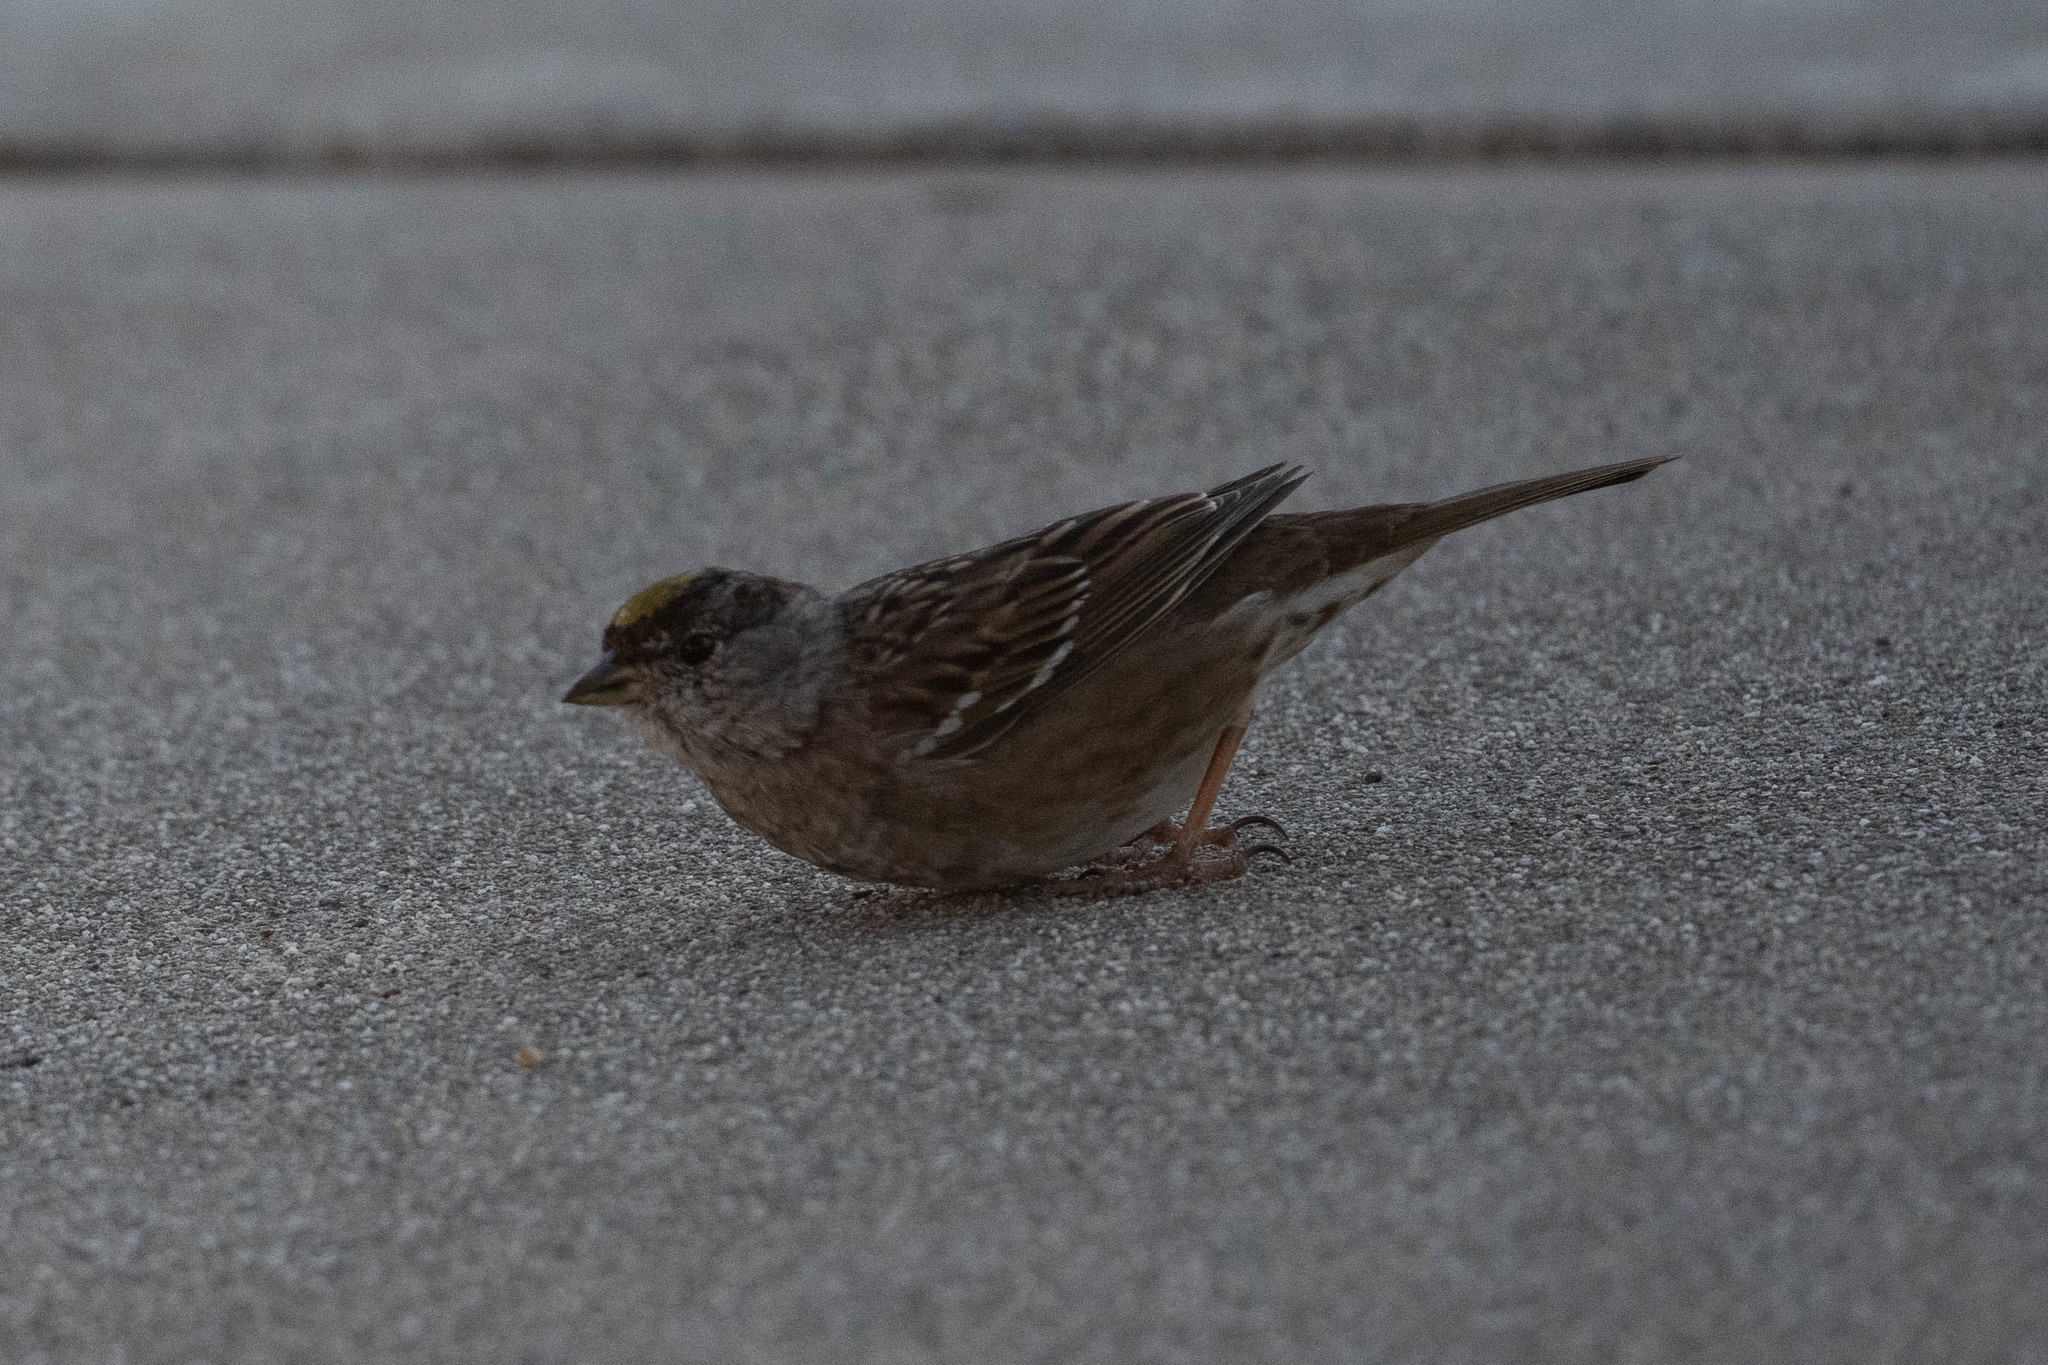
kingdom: Animalia
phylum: Chordata
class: Aves
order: Passeriformes
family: Passerellidae
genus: Zonotrichia
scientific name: Zonotrichia atricapilla
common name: Golden-crowned sparrow
